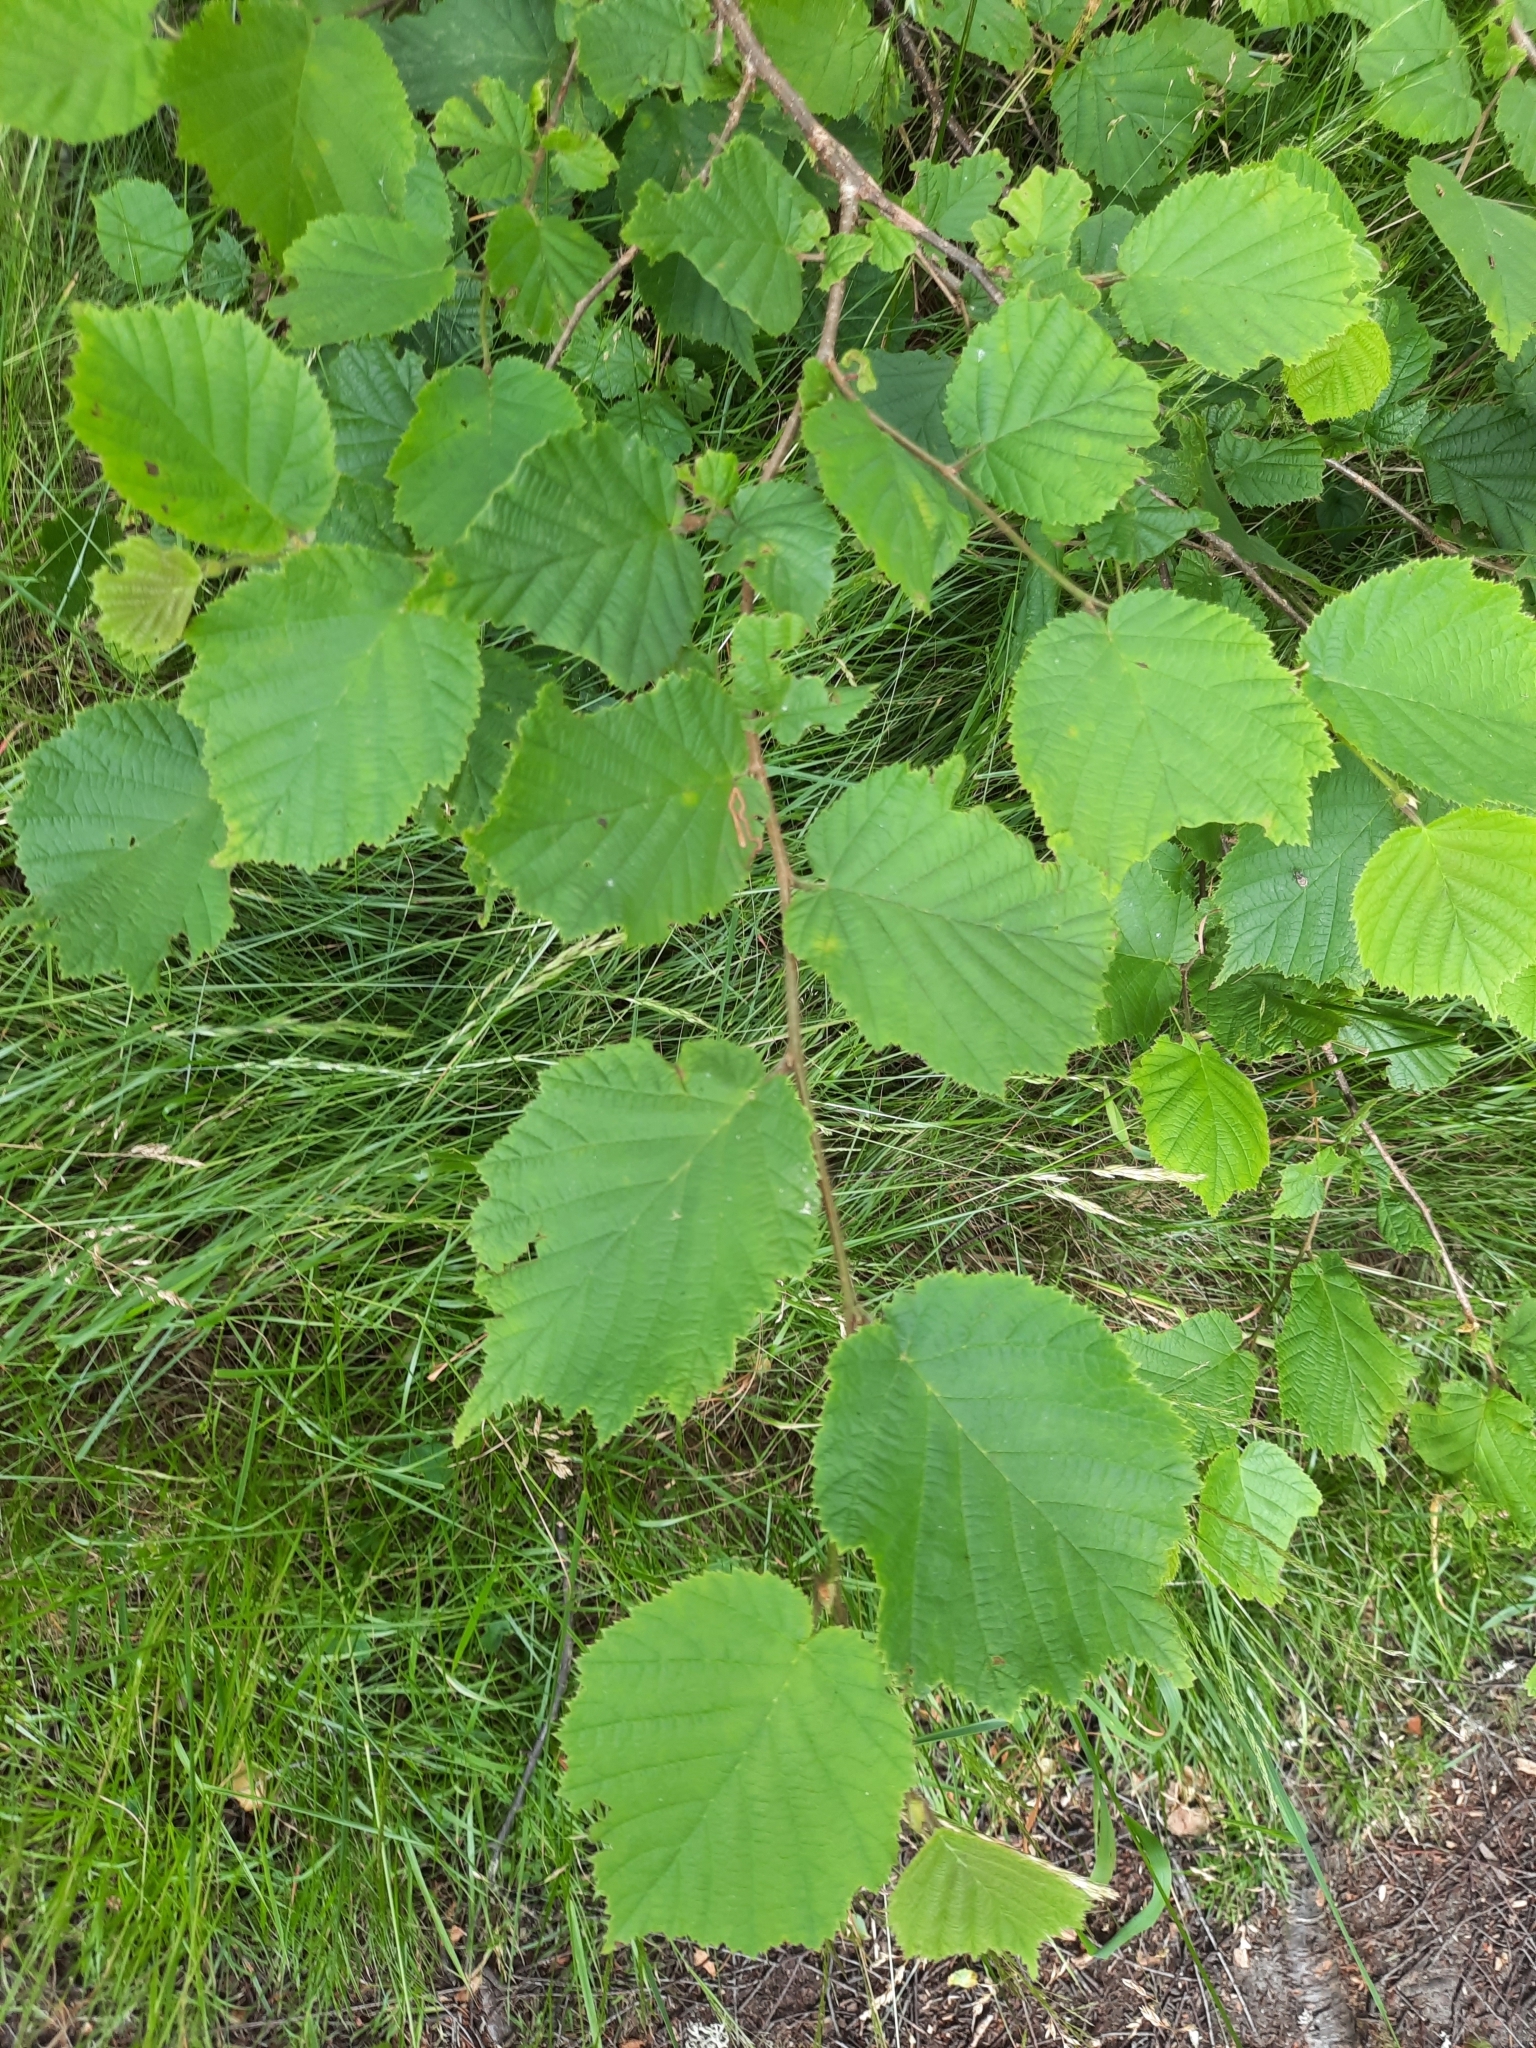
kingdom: Plantae
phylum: Tracheophyta
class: Magnoliopsida
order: Fagales
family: Betulaceae
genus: Corylus
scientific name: Corylus avellana
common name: European hazel
